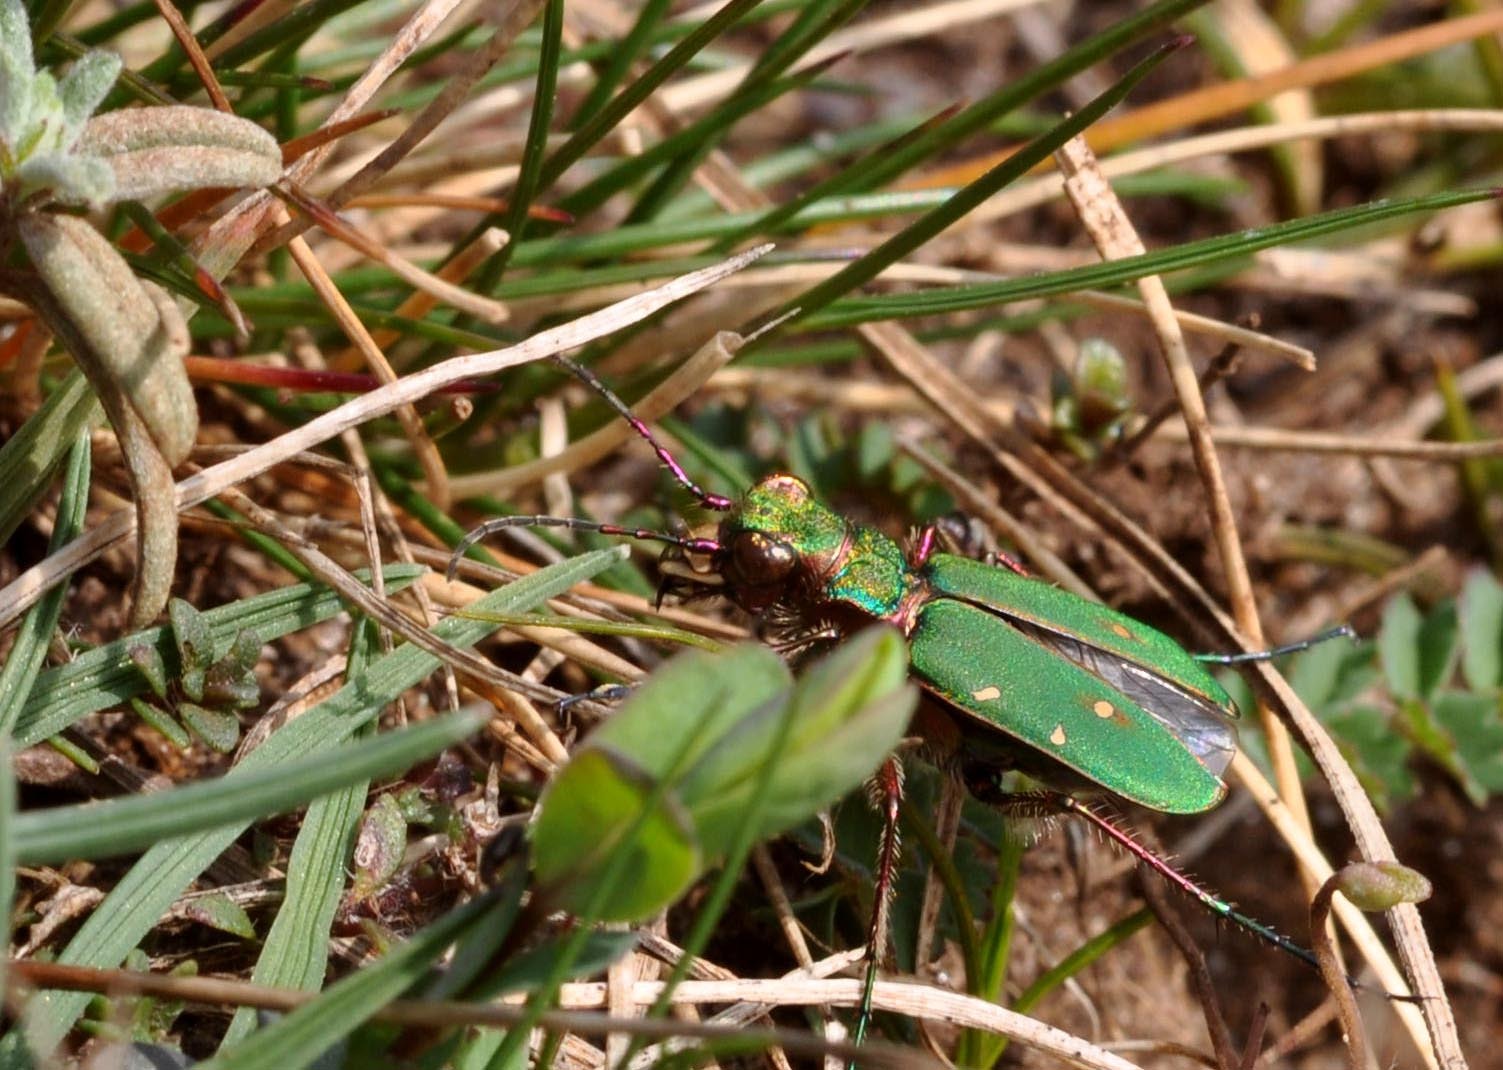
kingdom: Animalia
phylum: Arthropoda
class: Insecta
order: Coleoptera
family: Carabidae
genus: Cicindela
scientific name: Cicindela campestris
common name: Common tiger beetle
